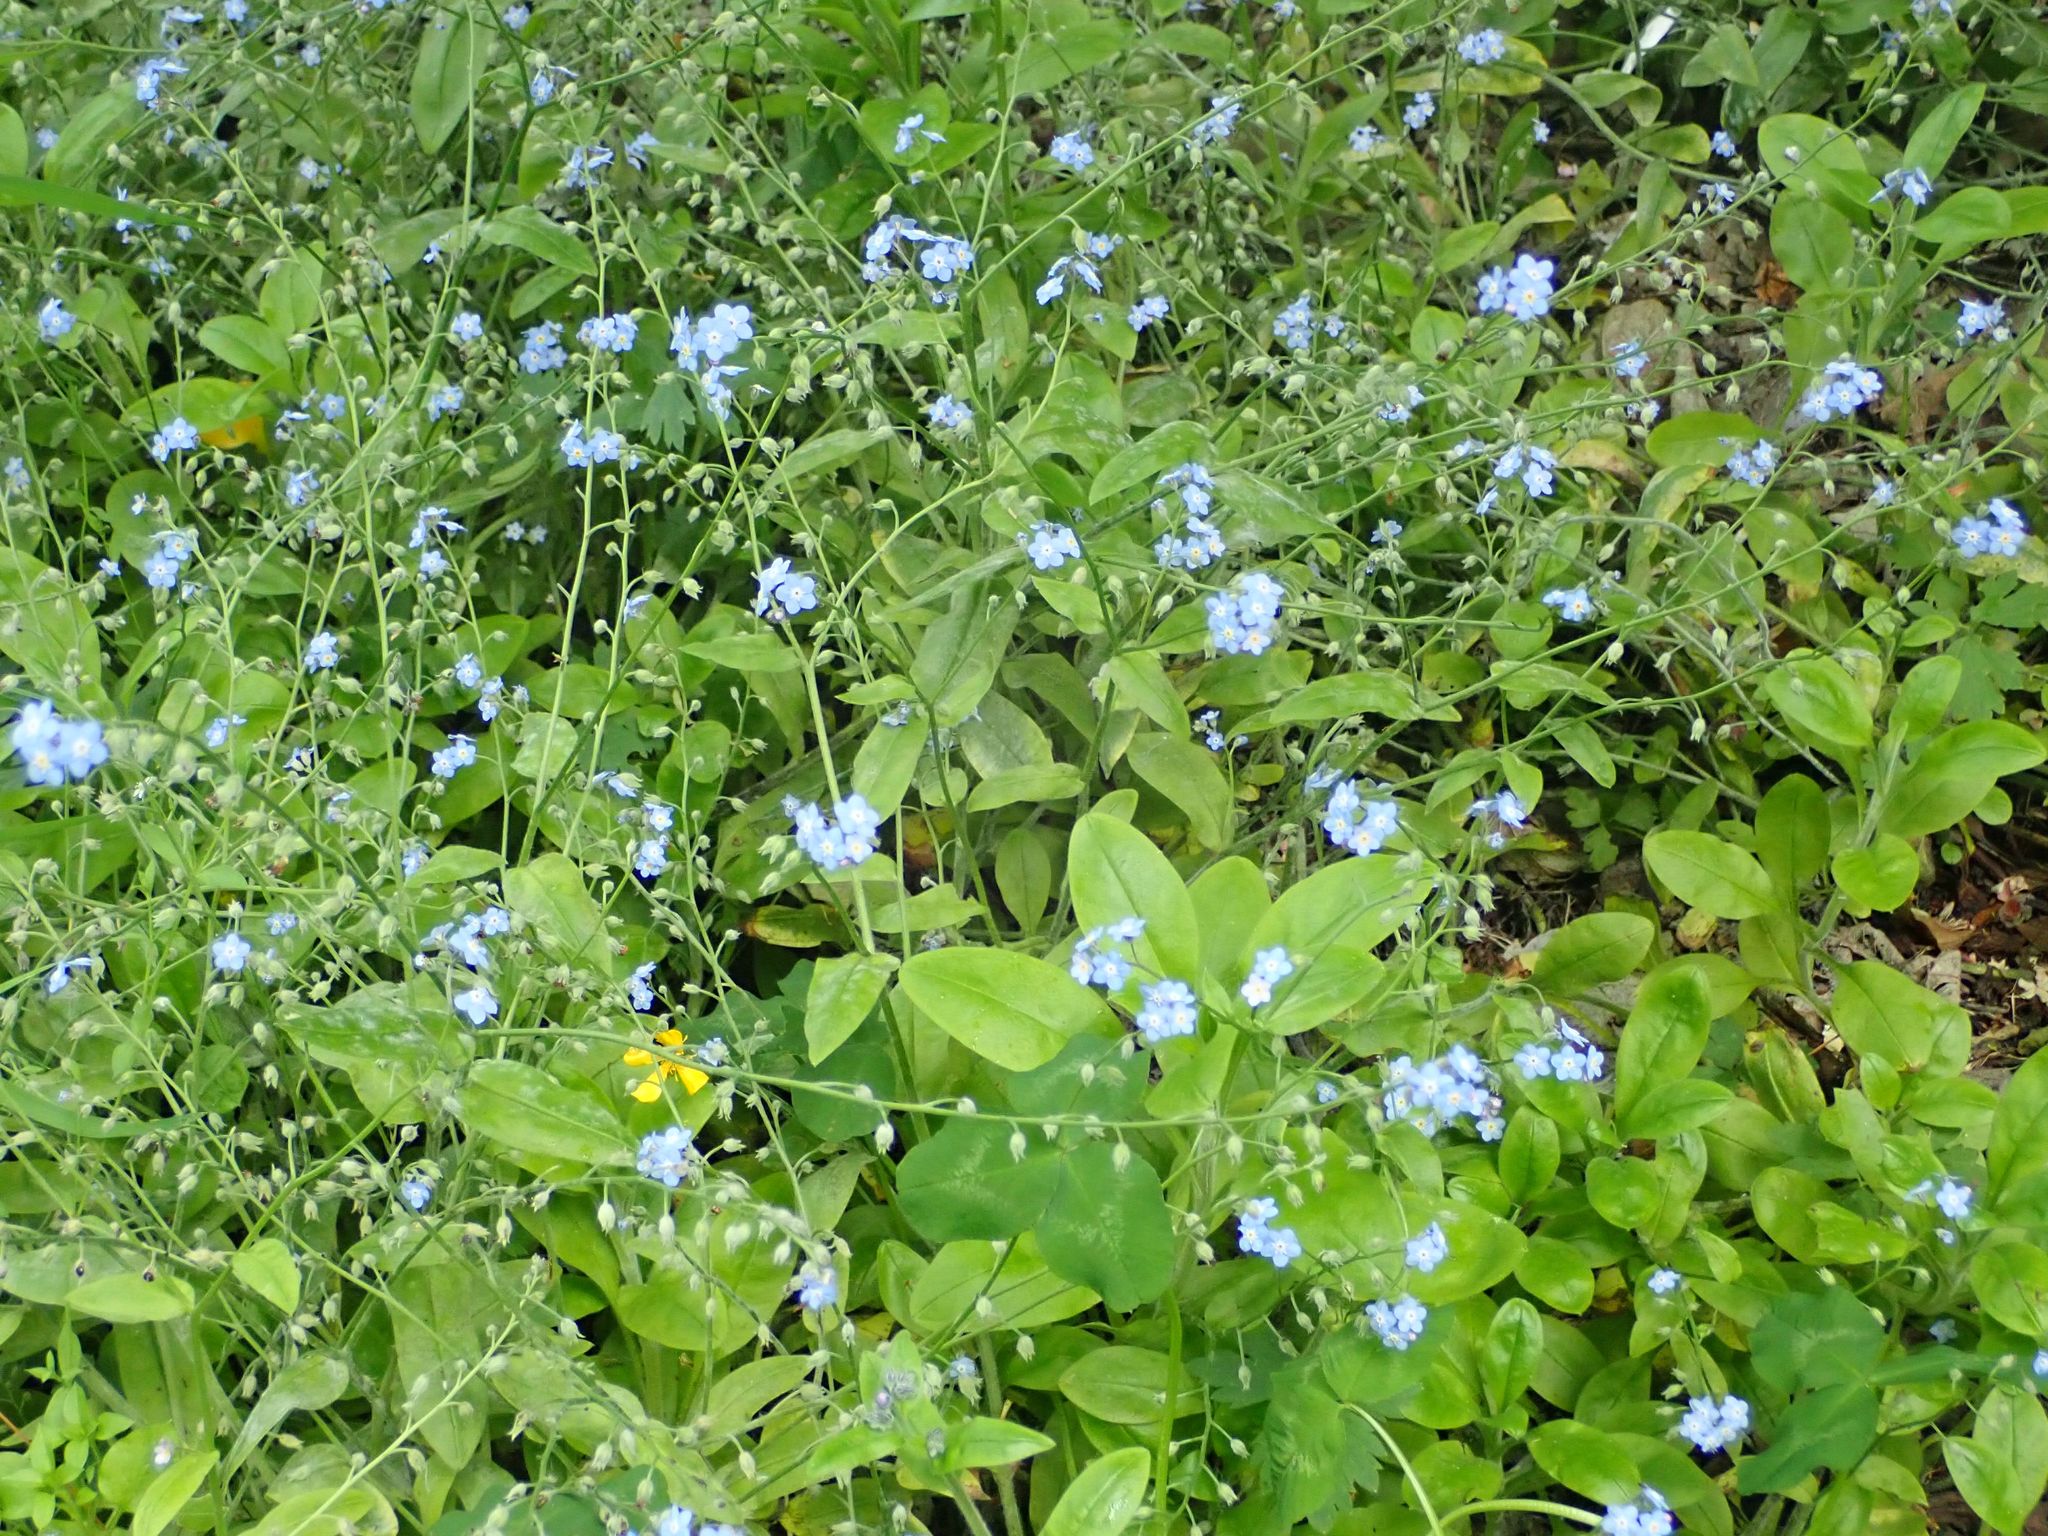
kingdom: Plantae
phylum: Tracheophyta
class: Magnoliopsida
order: Boraginales
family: Boraginaceae
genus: Myosotis
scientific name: Myosotis sylvatica
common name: Wood forget-me-not
